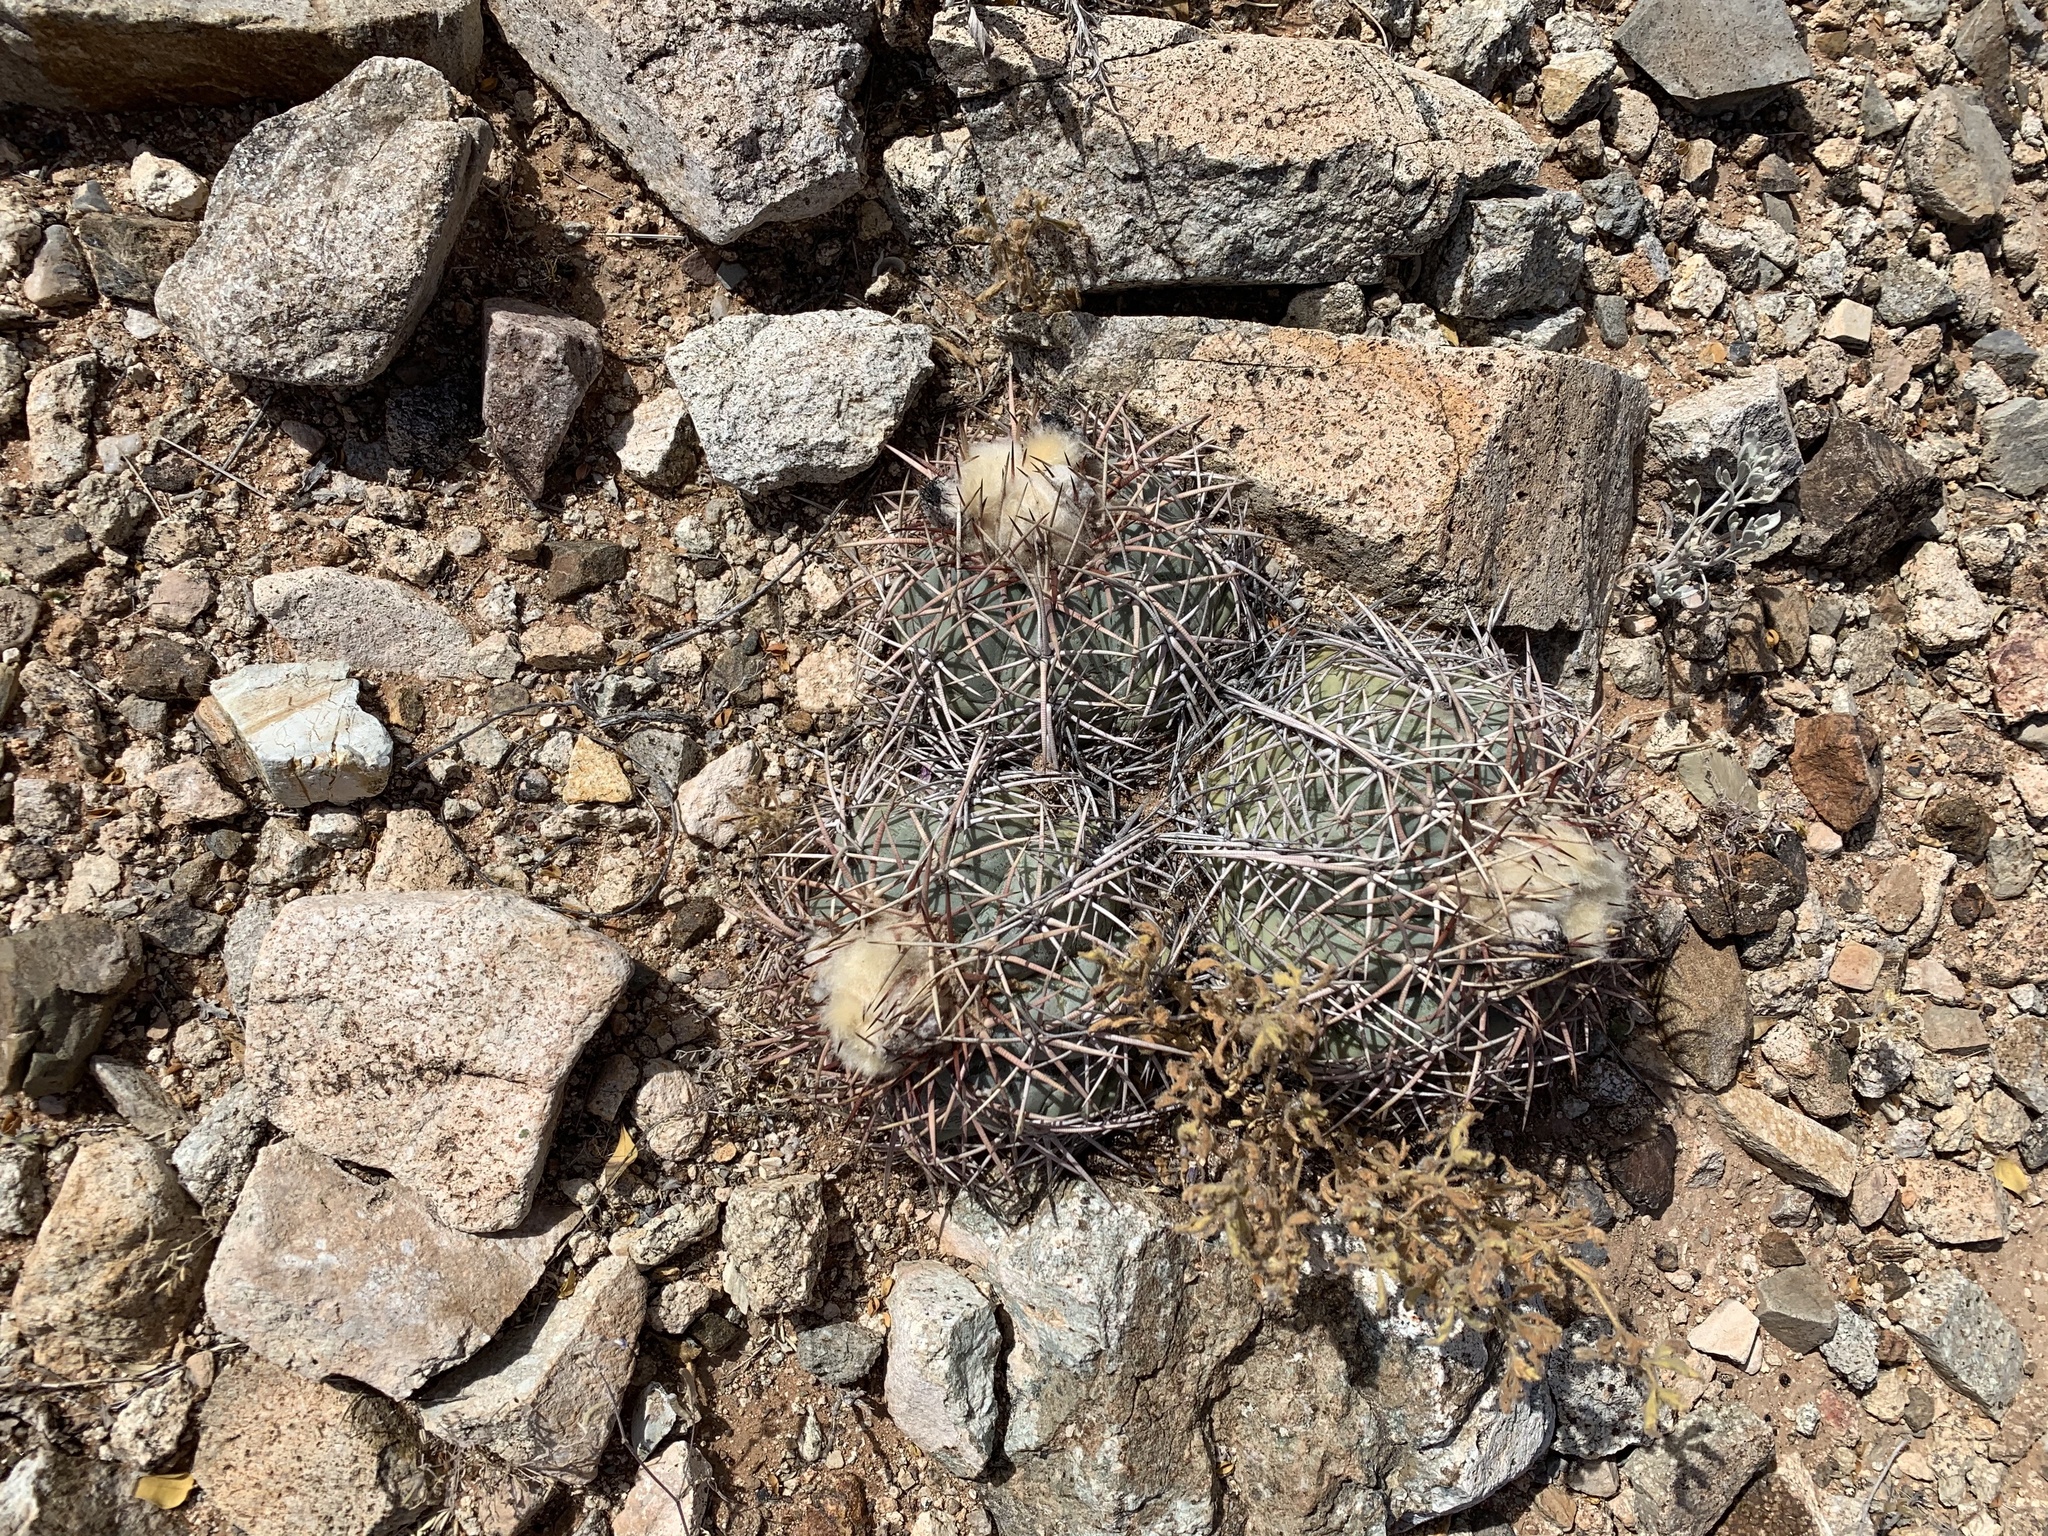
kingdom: Plantae
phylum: Tracheophyta
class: Magnoliopsida
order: Caryophyllales
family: Cactaceae
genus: Echinocactus
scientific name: Echinocactus horizonthalonius
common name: Devilshead
